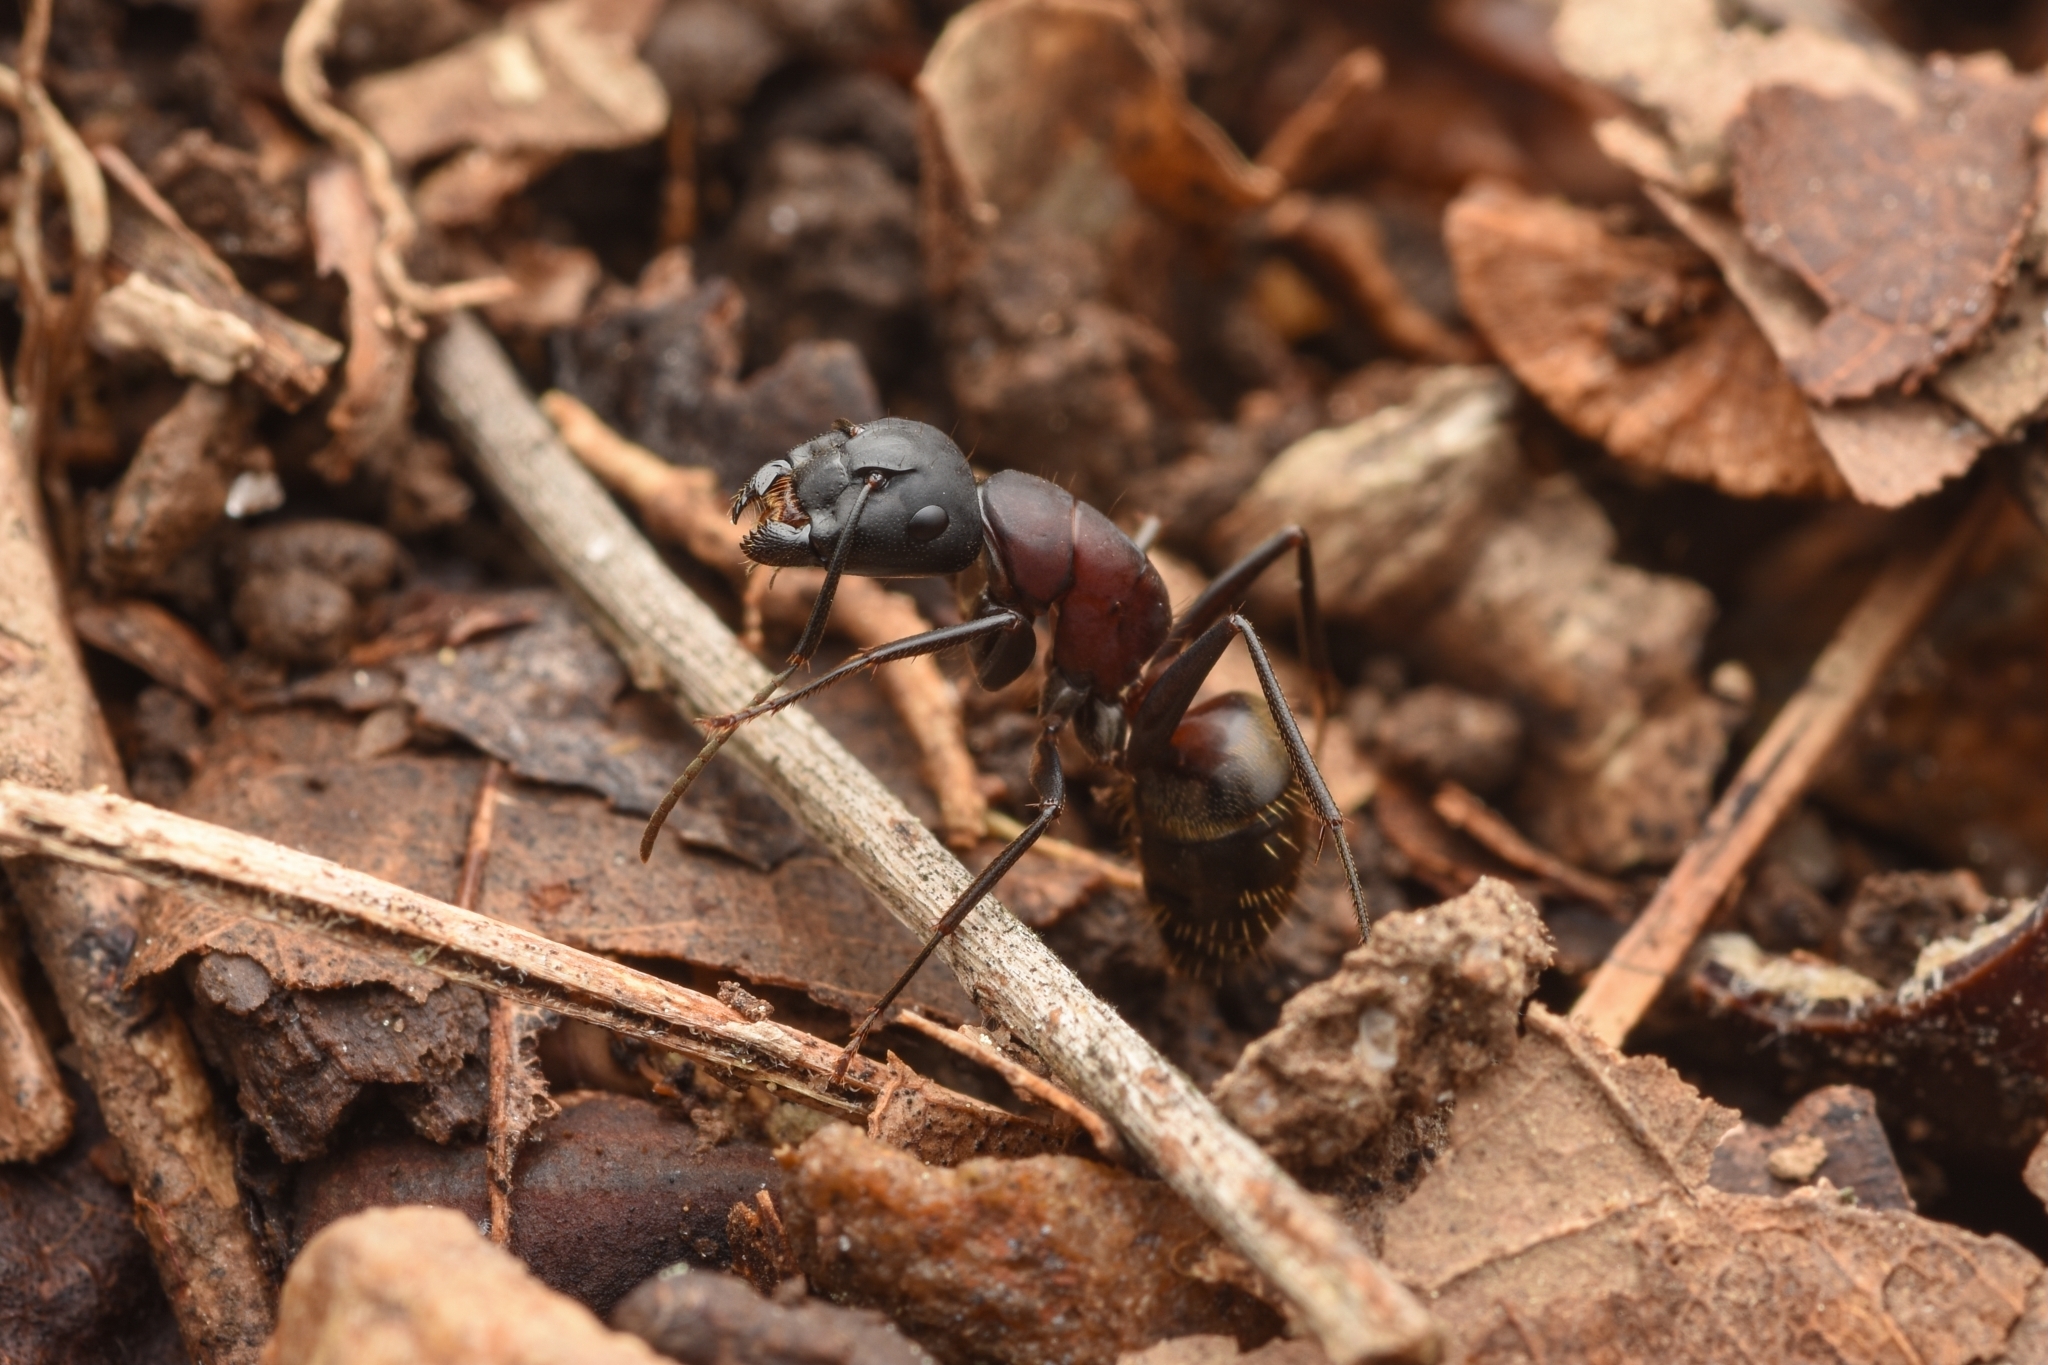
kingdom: Animalia
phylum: Arthropoda
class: Insecta
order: Hymenoptera
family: Formicidae
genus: Camponotus
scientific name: Camponotus atrox
